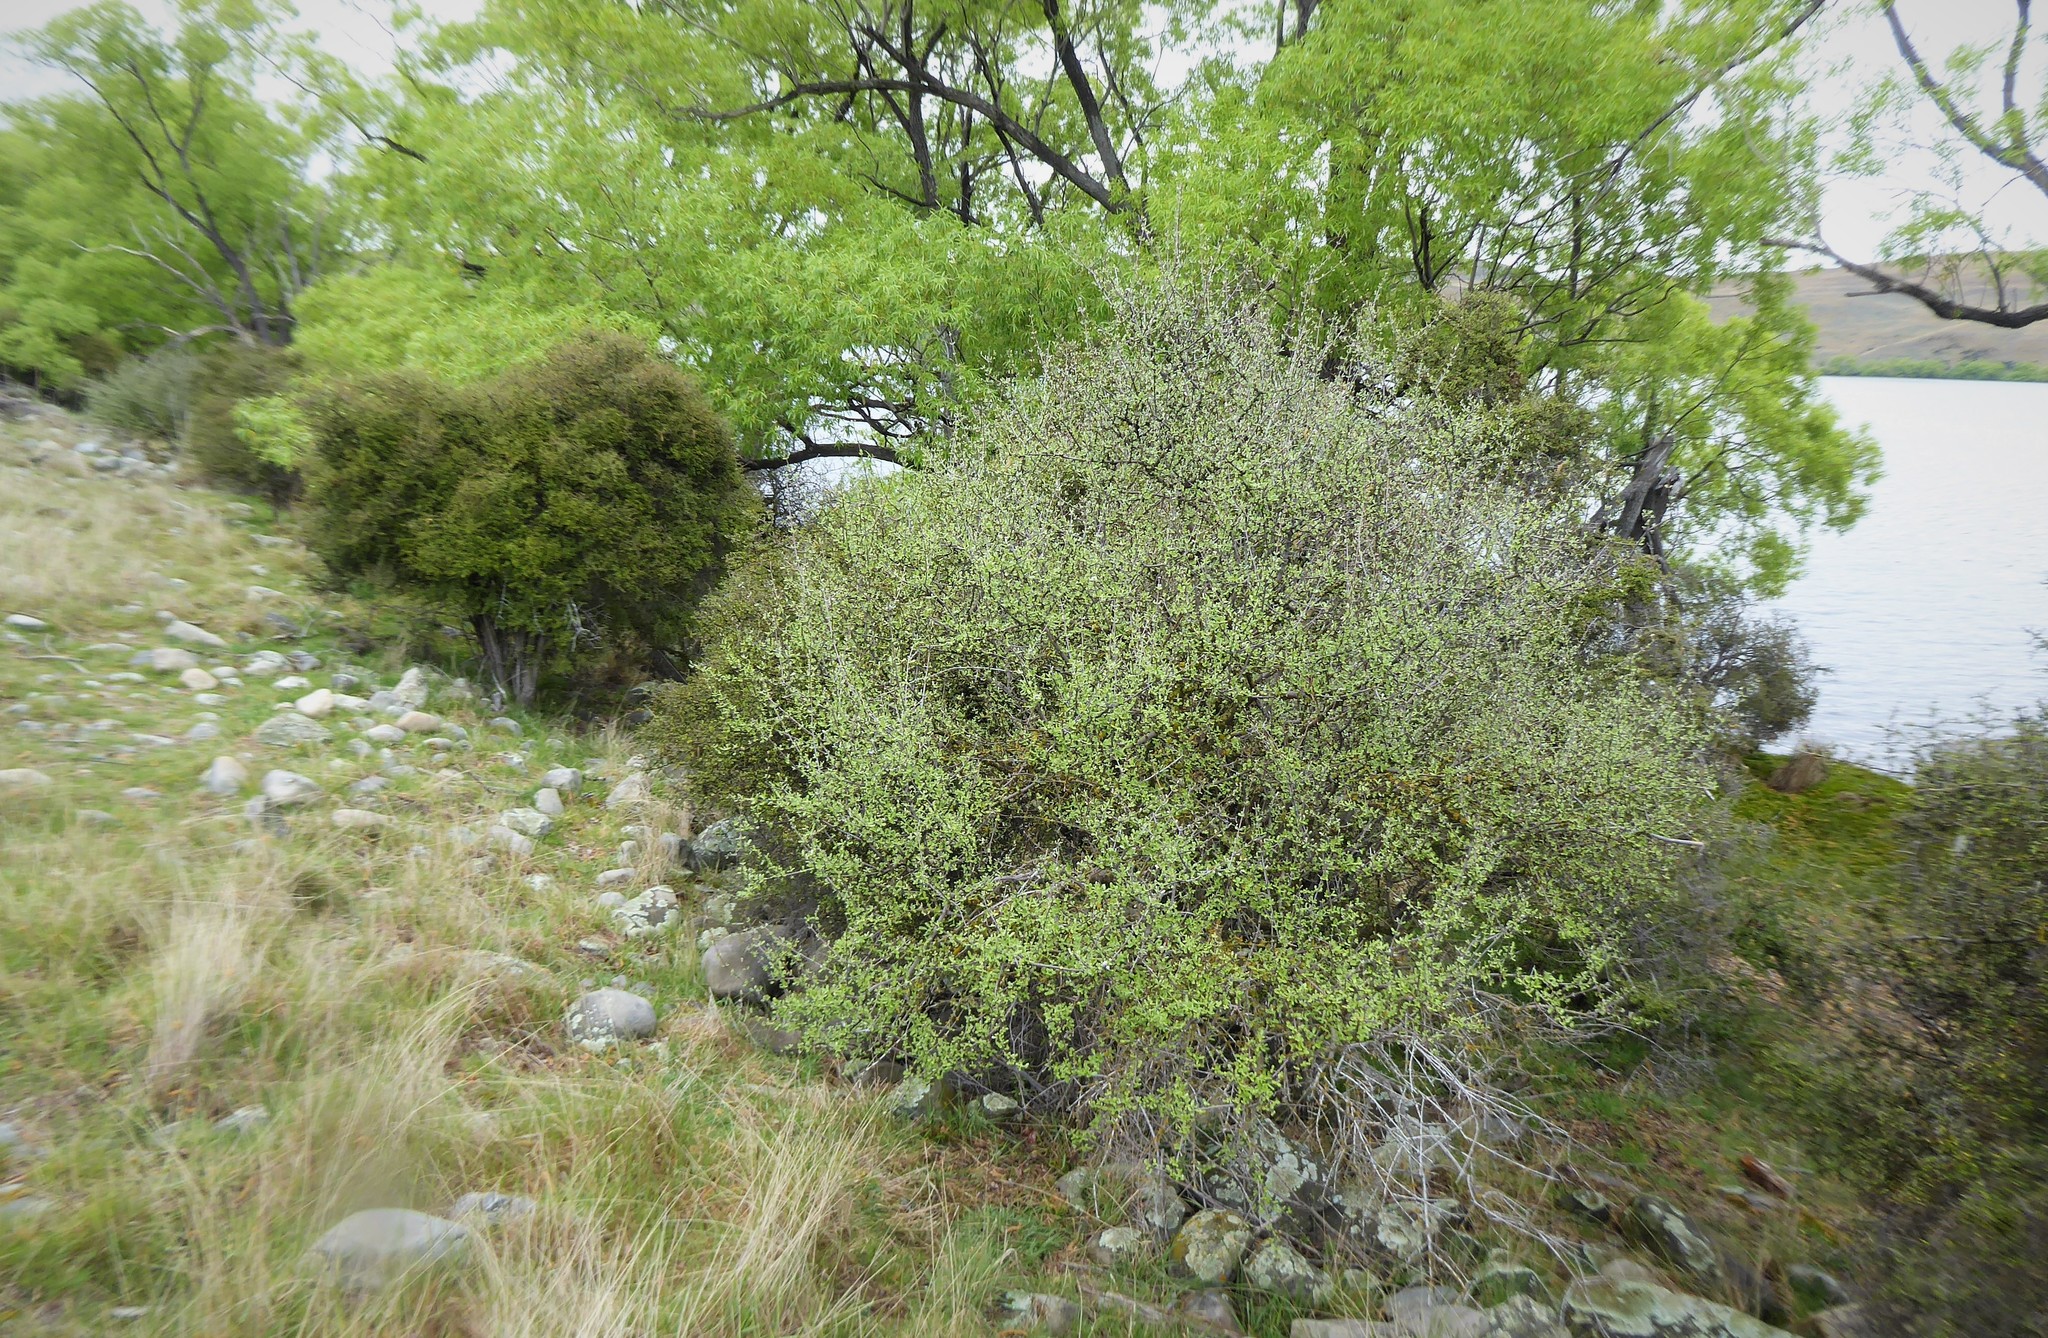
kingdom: Plantae
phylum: Tracheophyta
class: Magnoliopsida
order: Asterales
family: Asteraceae
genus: Olearia
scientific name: Olearia odorata
